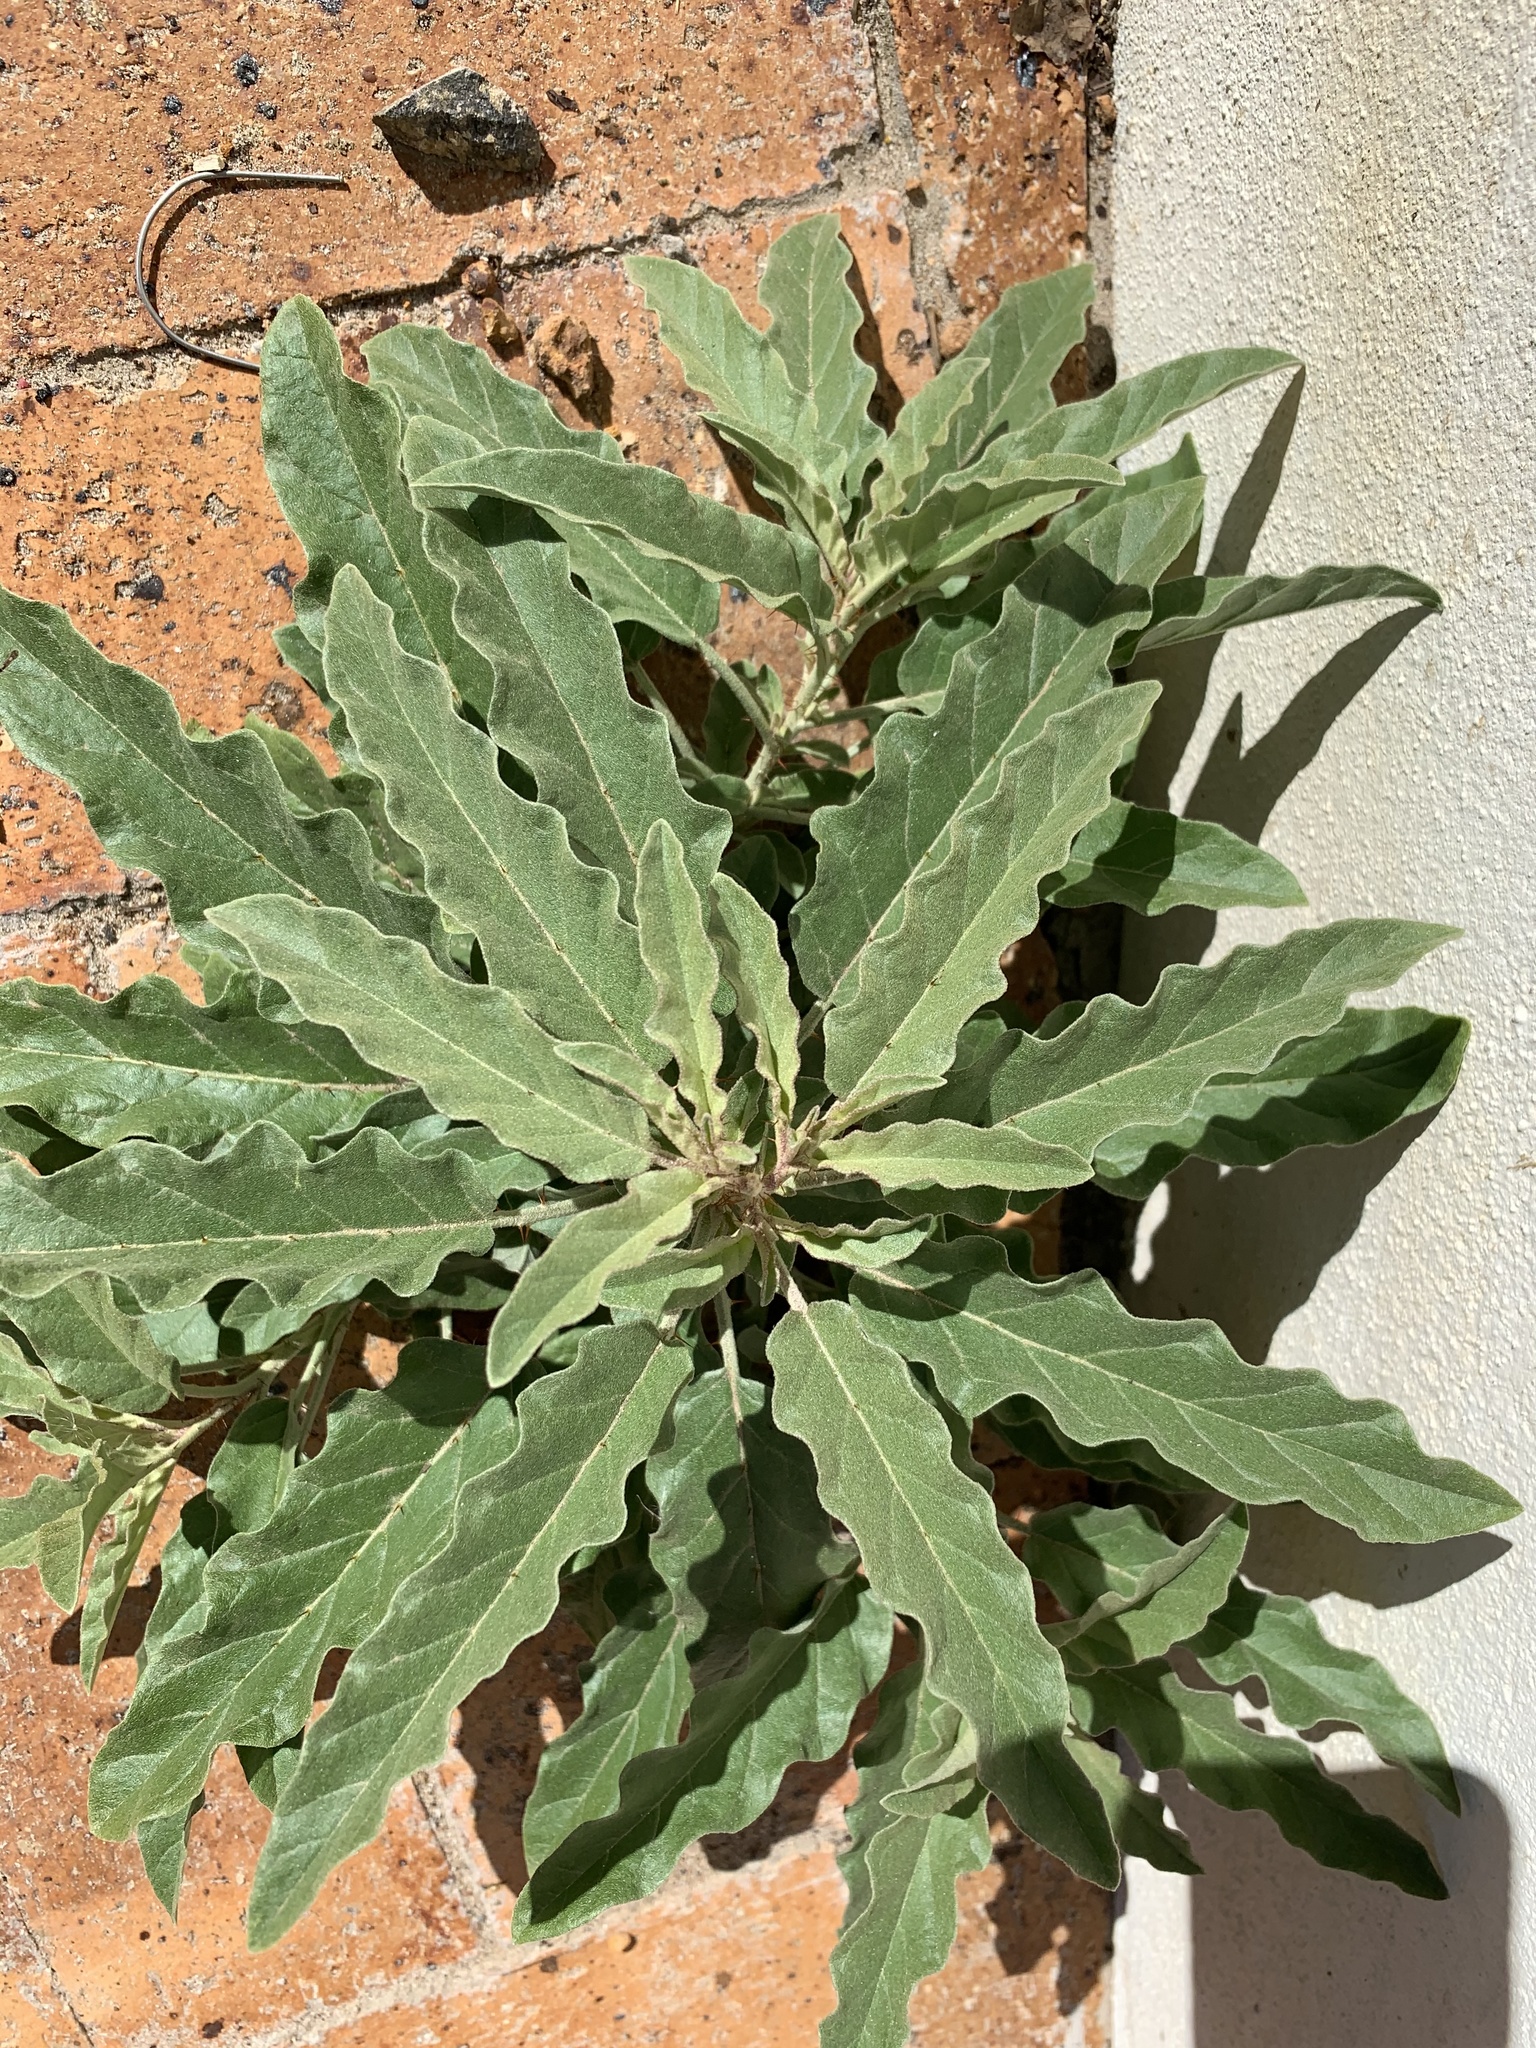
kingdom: Plantae
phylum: Tracheophyta
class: Magnoliopsida
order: Solanales
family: Solanaceae
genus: Solanum
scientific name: Solanum elaeagnifolium
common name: Silverleaf nightshade
